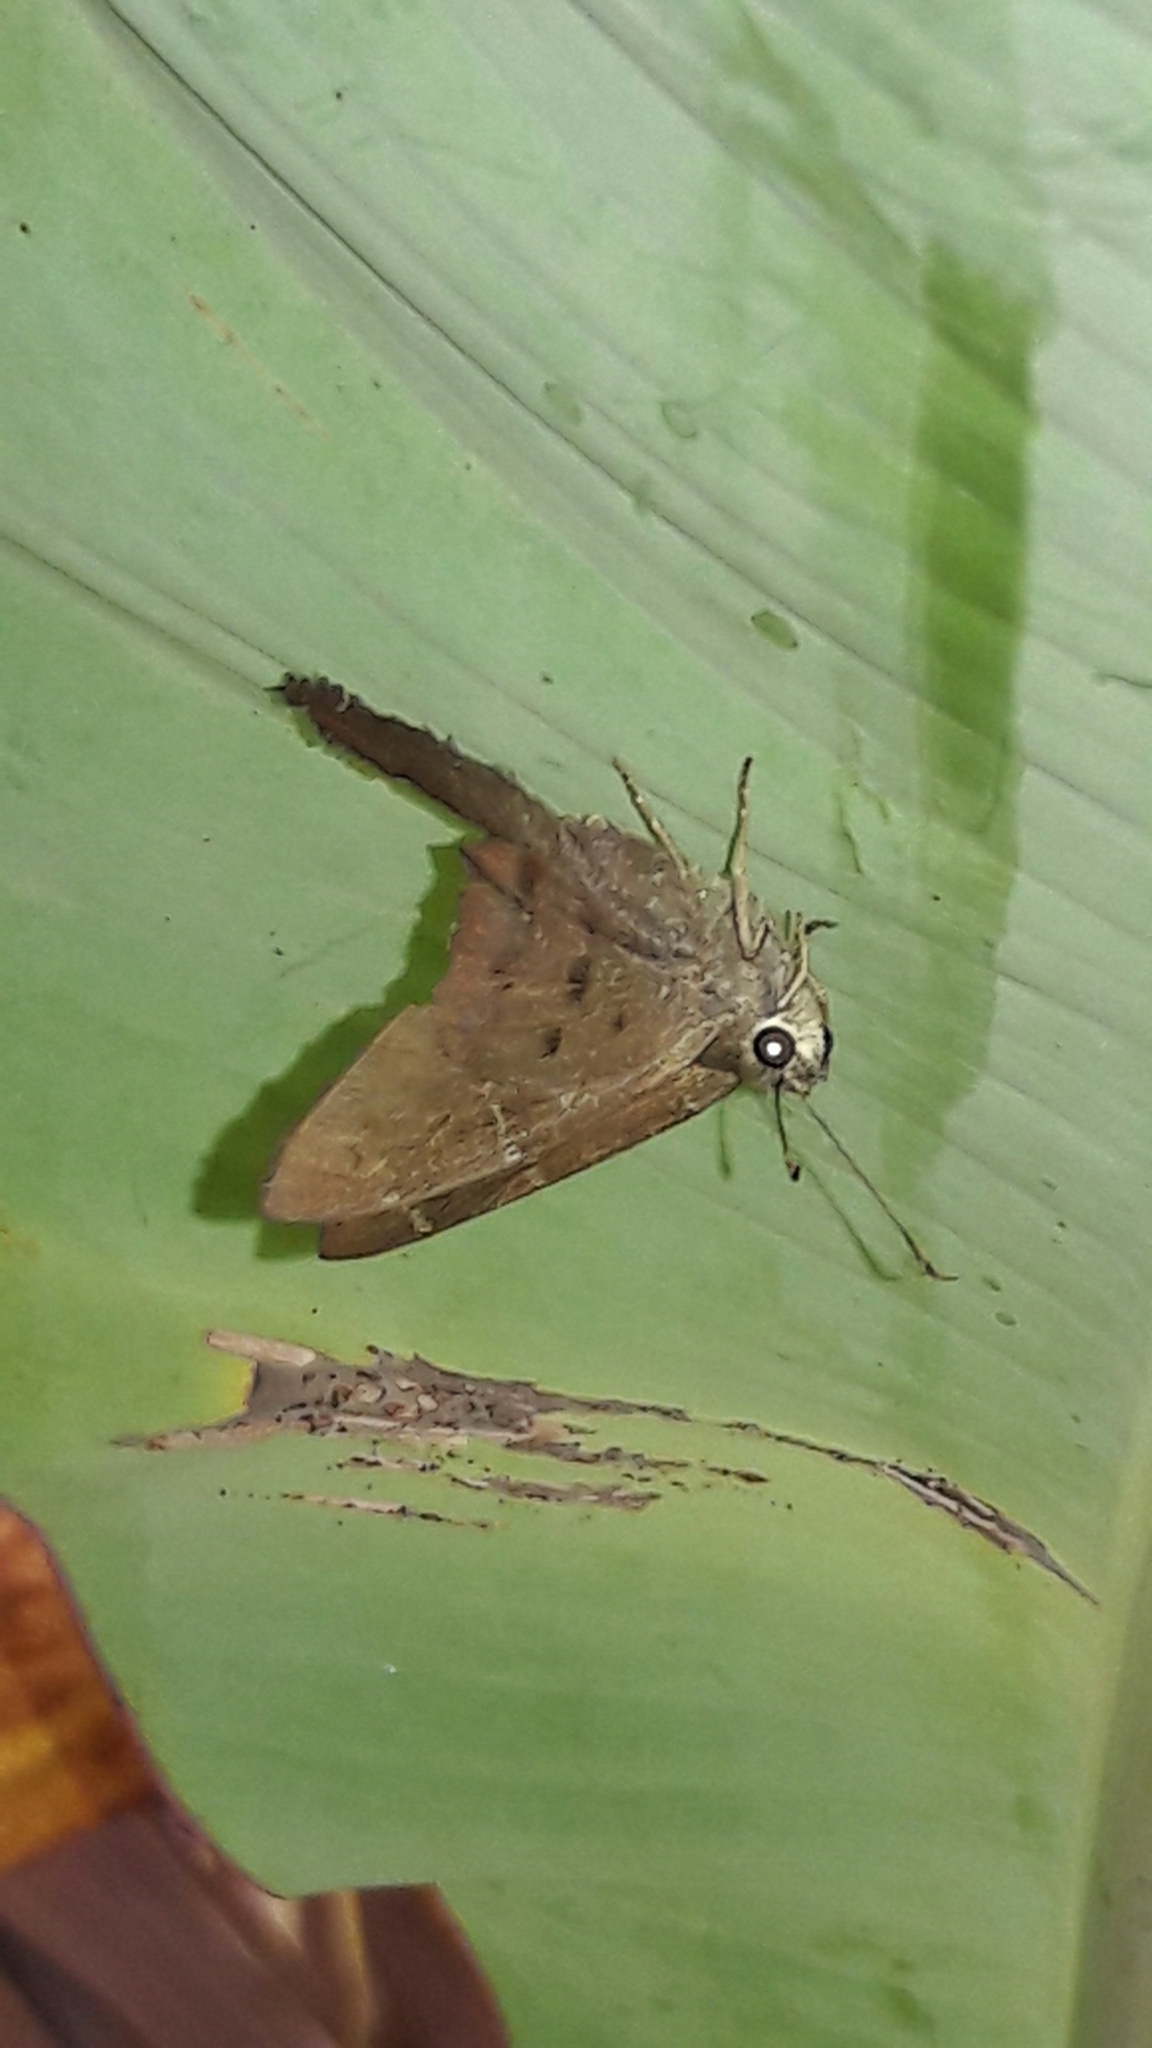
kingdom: Animalia
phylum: Arthropoda
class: Insecta
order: Lepidoptera
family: Hesperiidae
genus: Urbanus
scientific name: Urbanus simplicius
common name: Plain longtail
